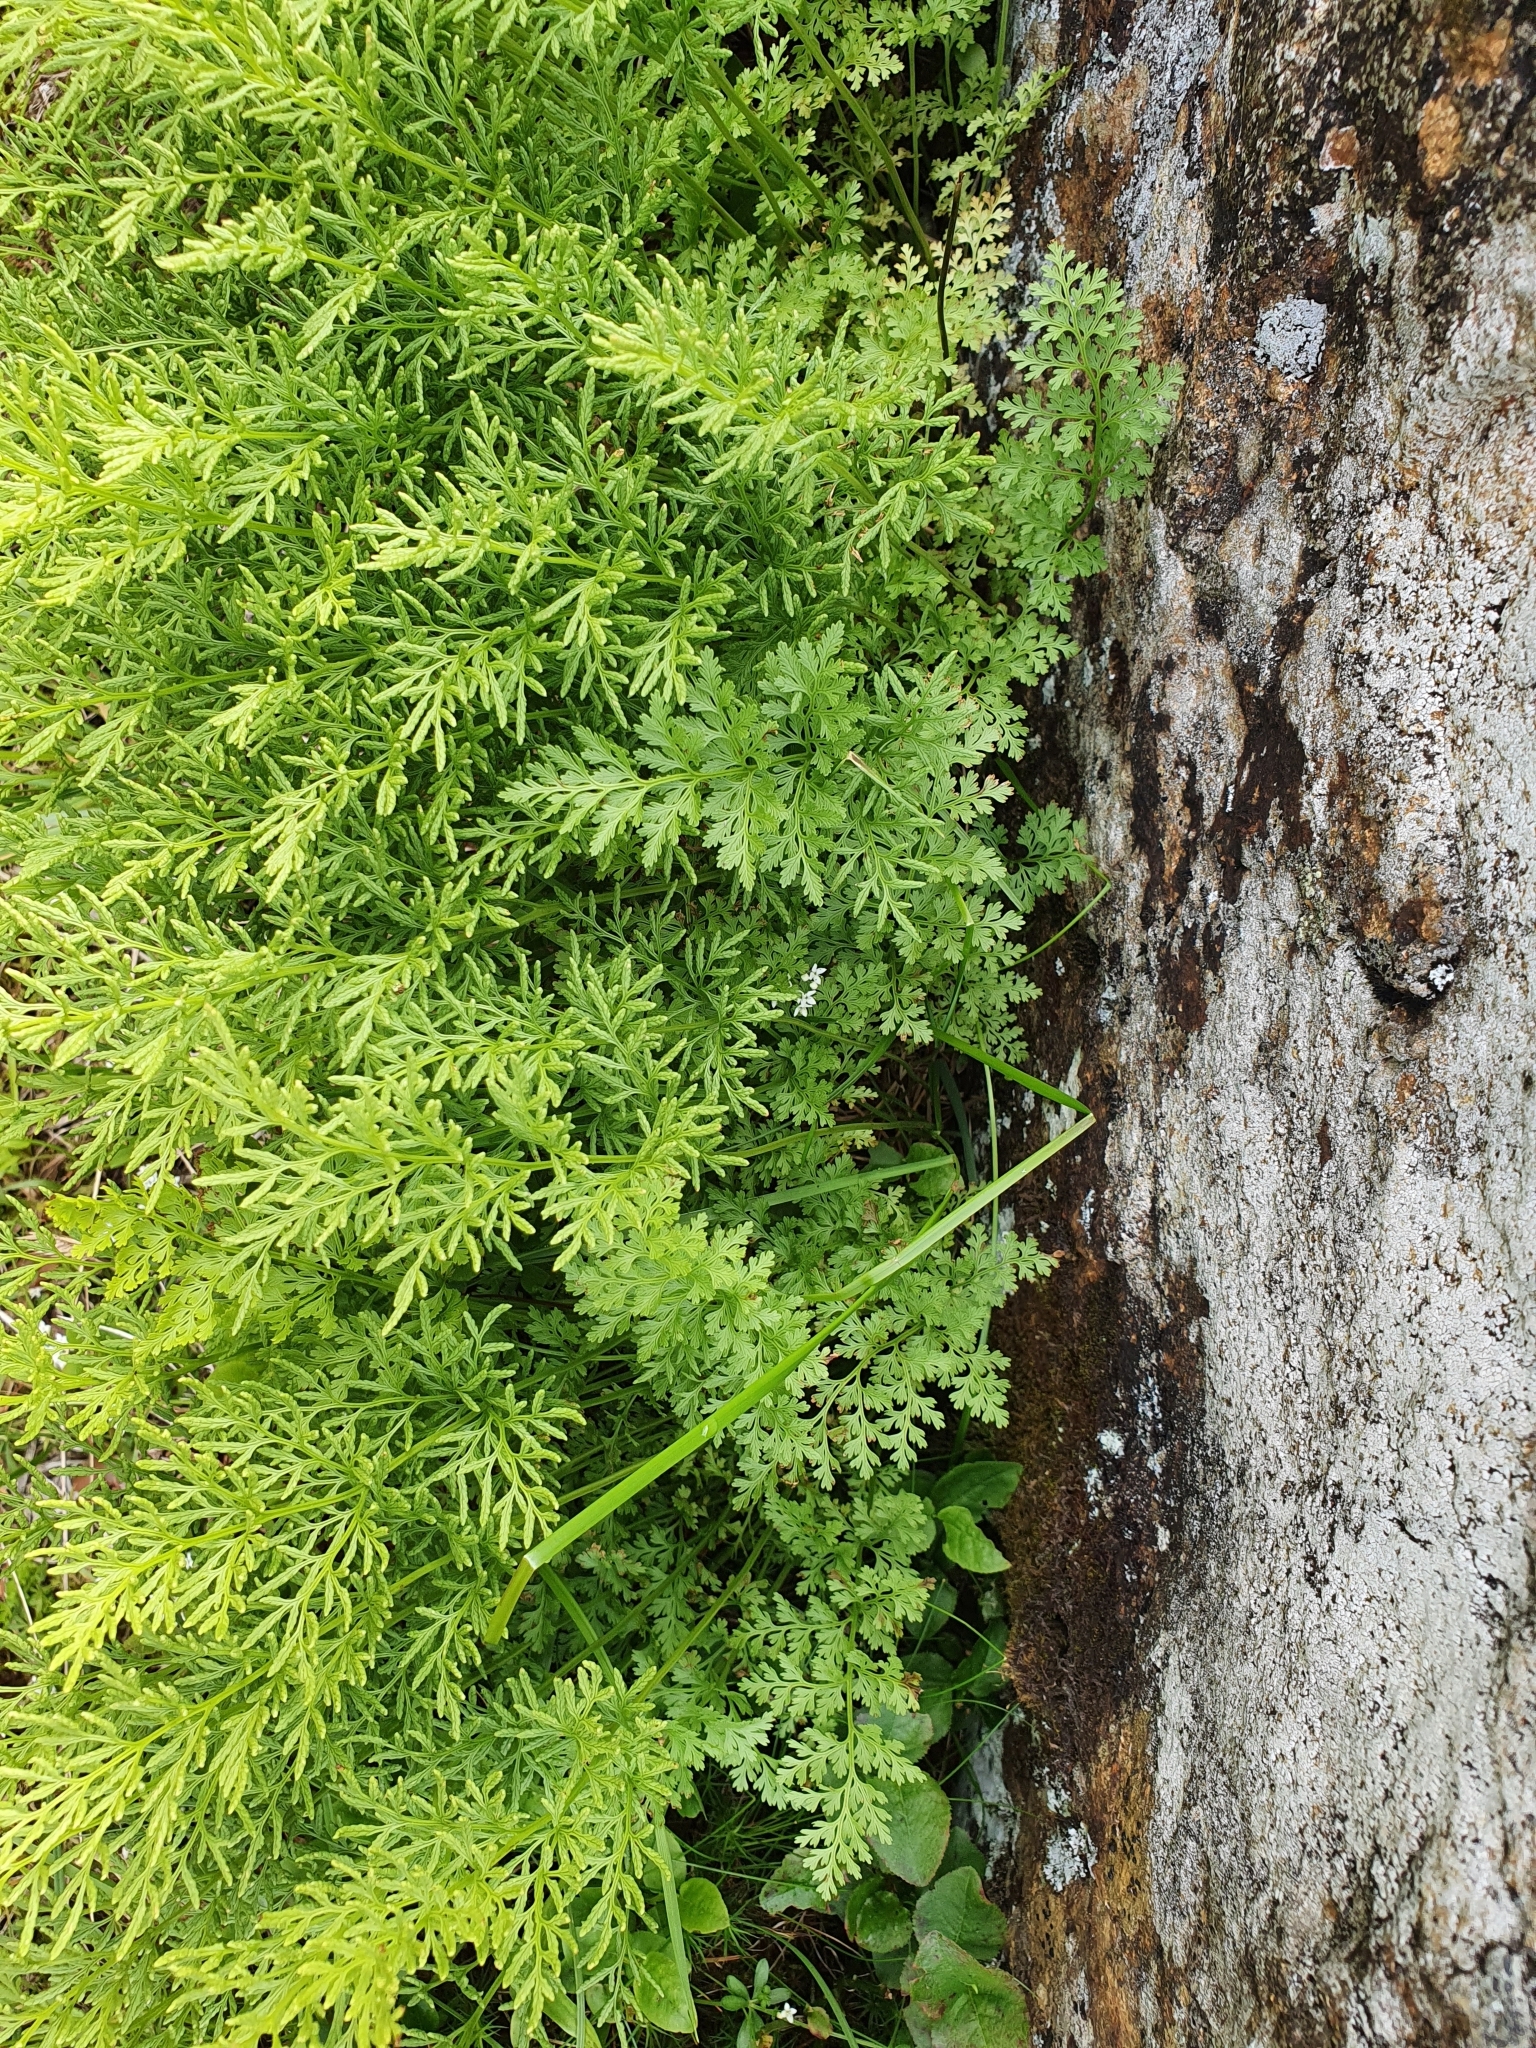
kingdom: Plantae
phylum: Tracheophyta
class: Polypodiopsida
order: Polypodiales
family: Pteridaceae
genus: Cryptogramma
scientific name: Cryptogramma crispa
